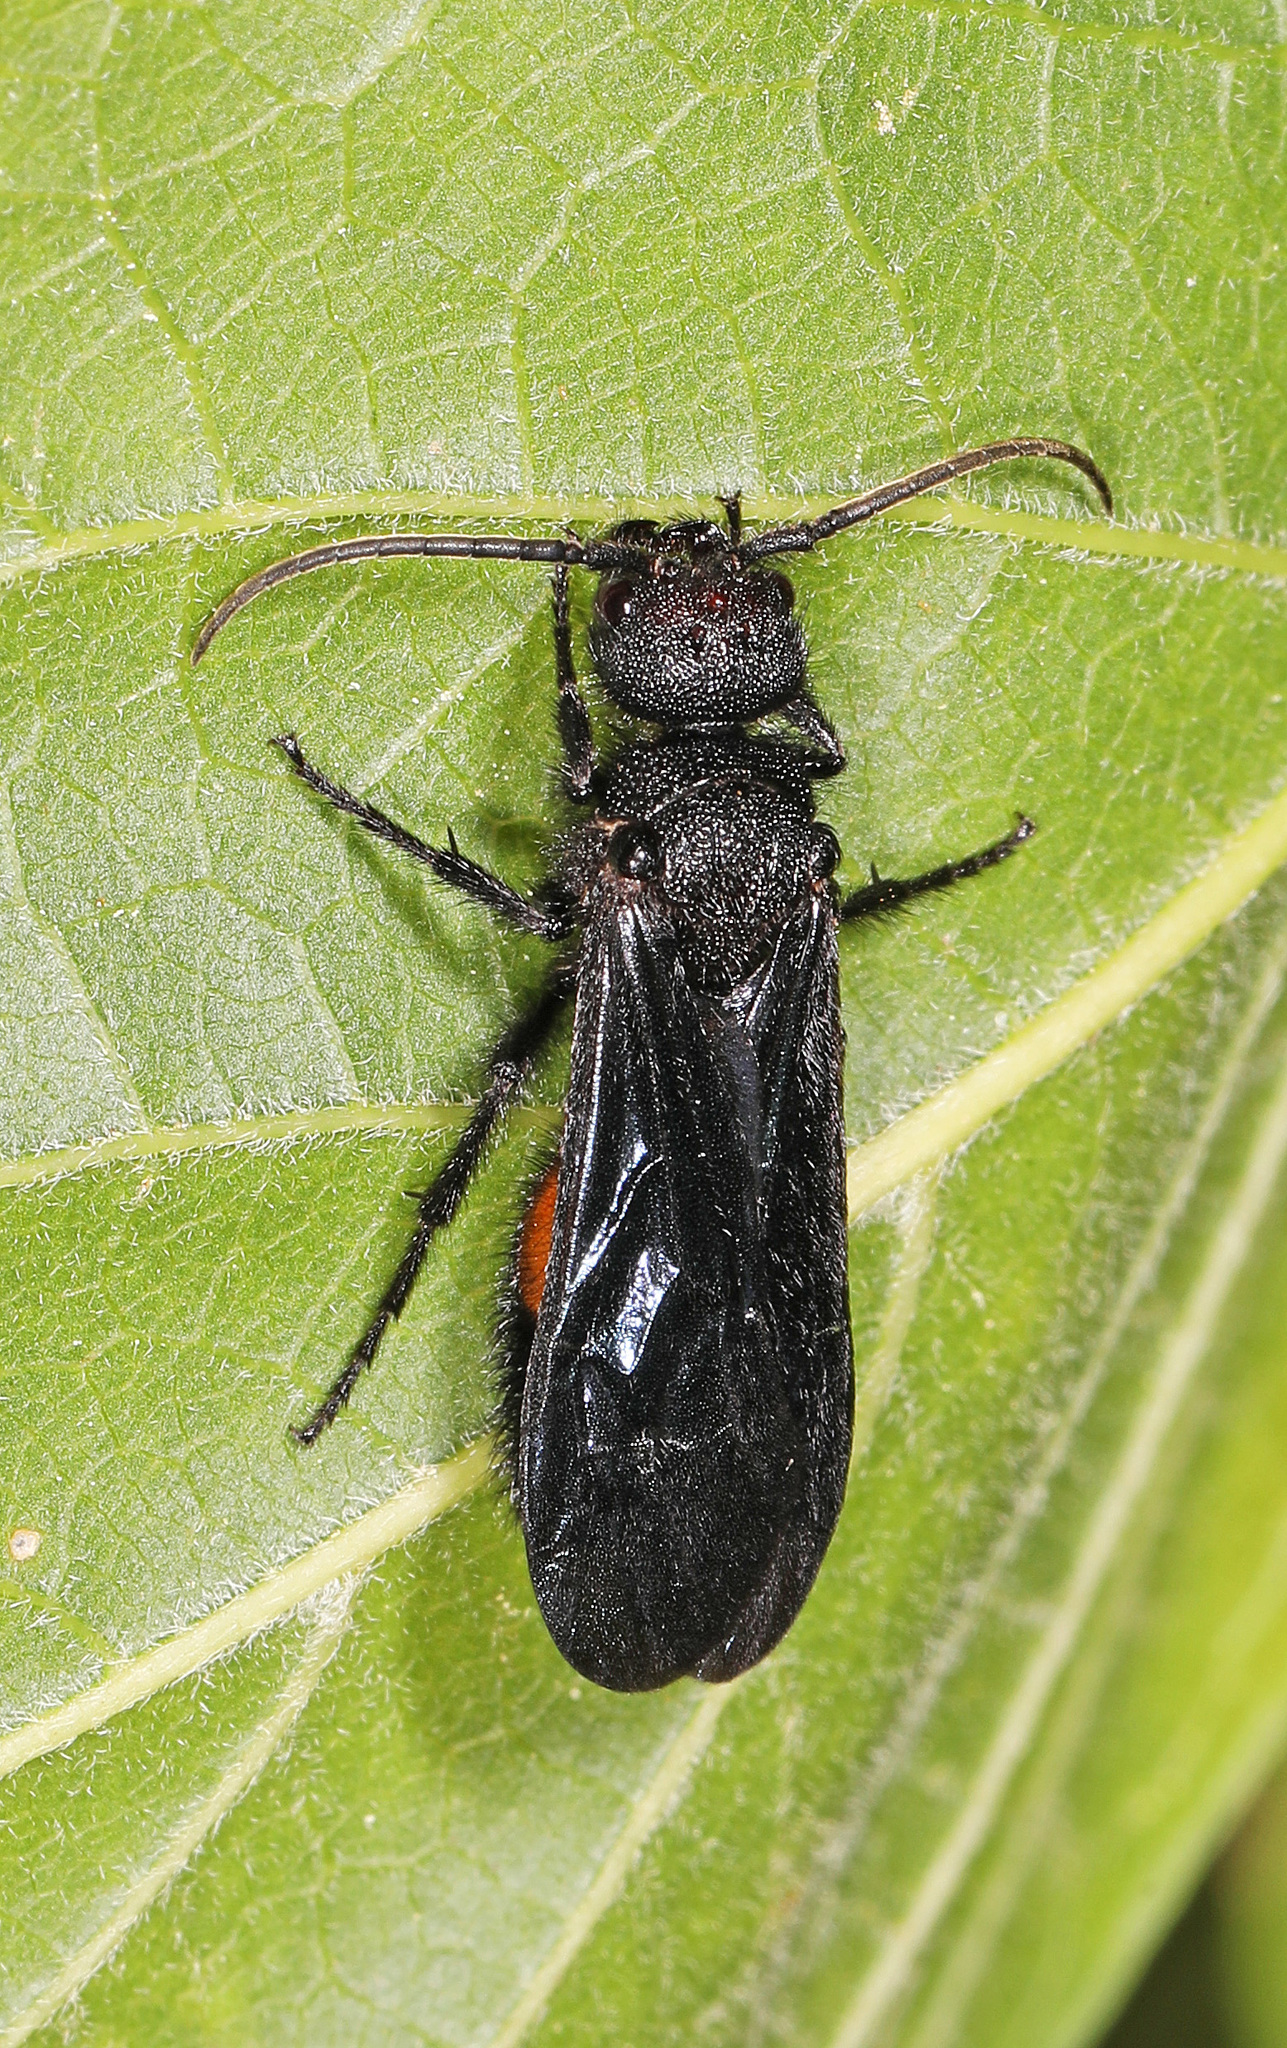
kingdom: Animalia
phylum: Arthropoda
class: Insecta
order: Hymenoptera
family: Mutillidae
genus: Sphaeropthalma
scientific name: Sphaeropthalma
